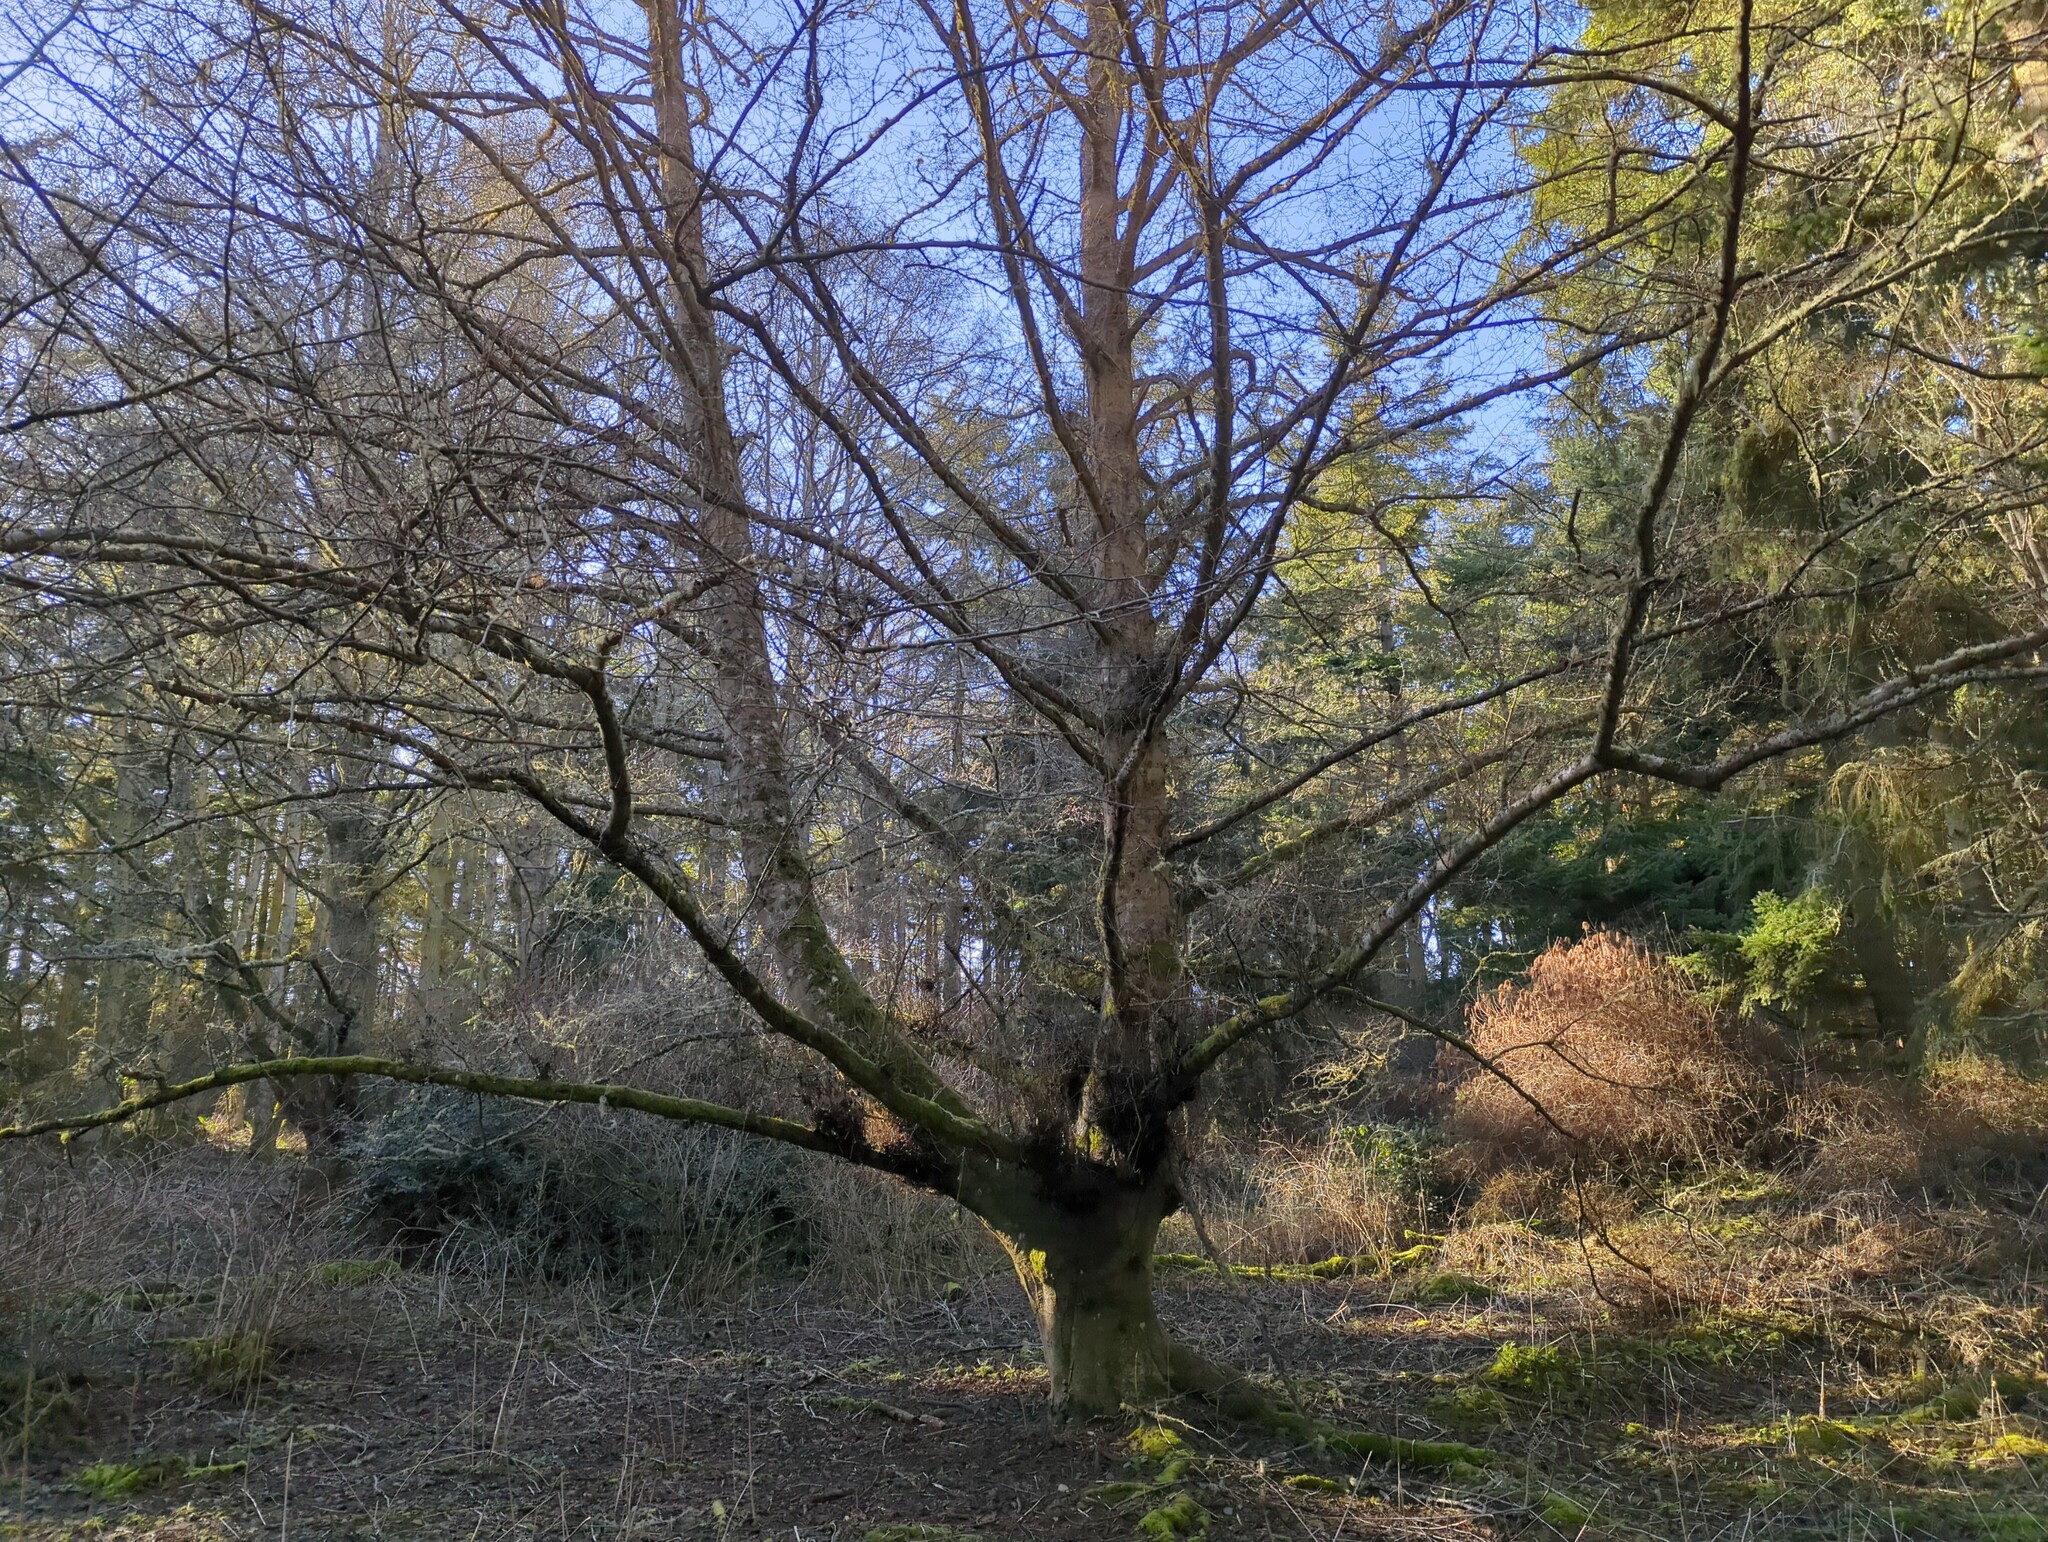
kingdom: Plantae
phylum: Tracheophyta
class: Magnoliopsida
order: Fagales
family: Betulaceae
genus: Alnus
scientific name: Alnus rubra
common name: Red alder
